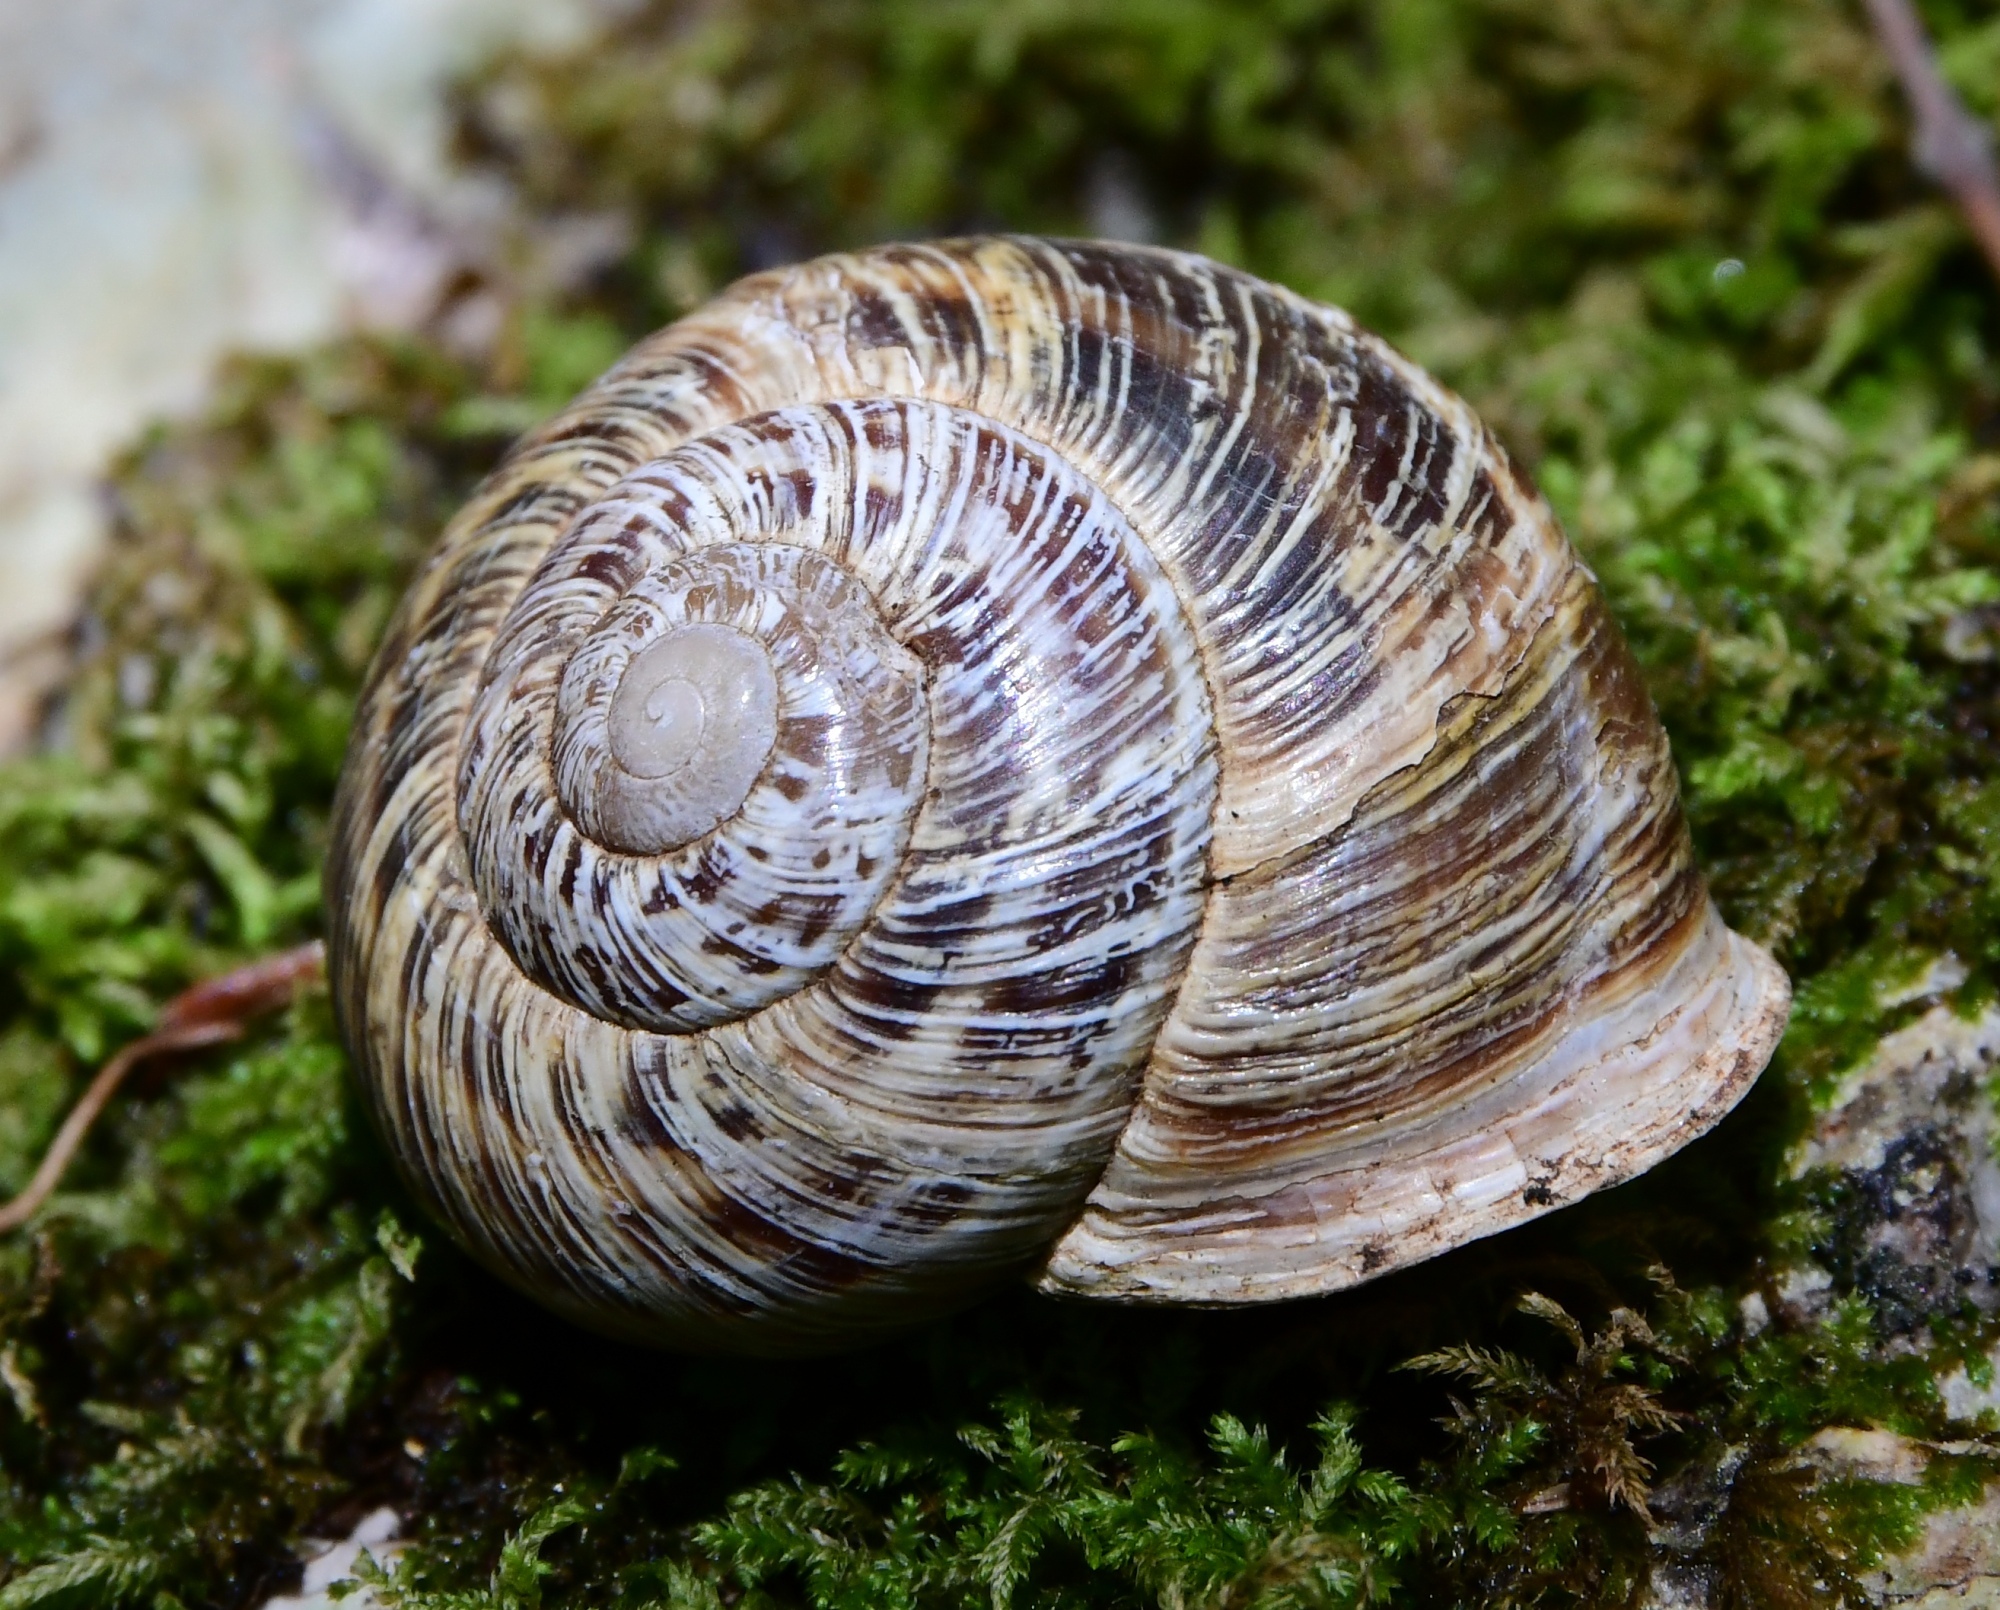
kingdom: Animalia
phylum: Mollusca
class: Gastropoda
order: Stylommatophora
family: Helicidae
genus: Codringtonia
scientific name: Codringtonia codringtonii
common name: Rock snail
